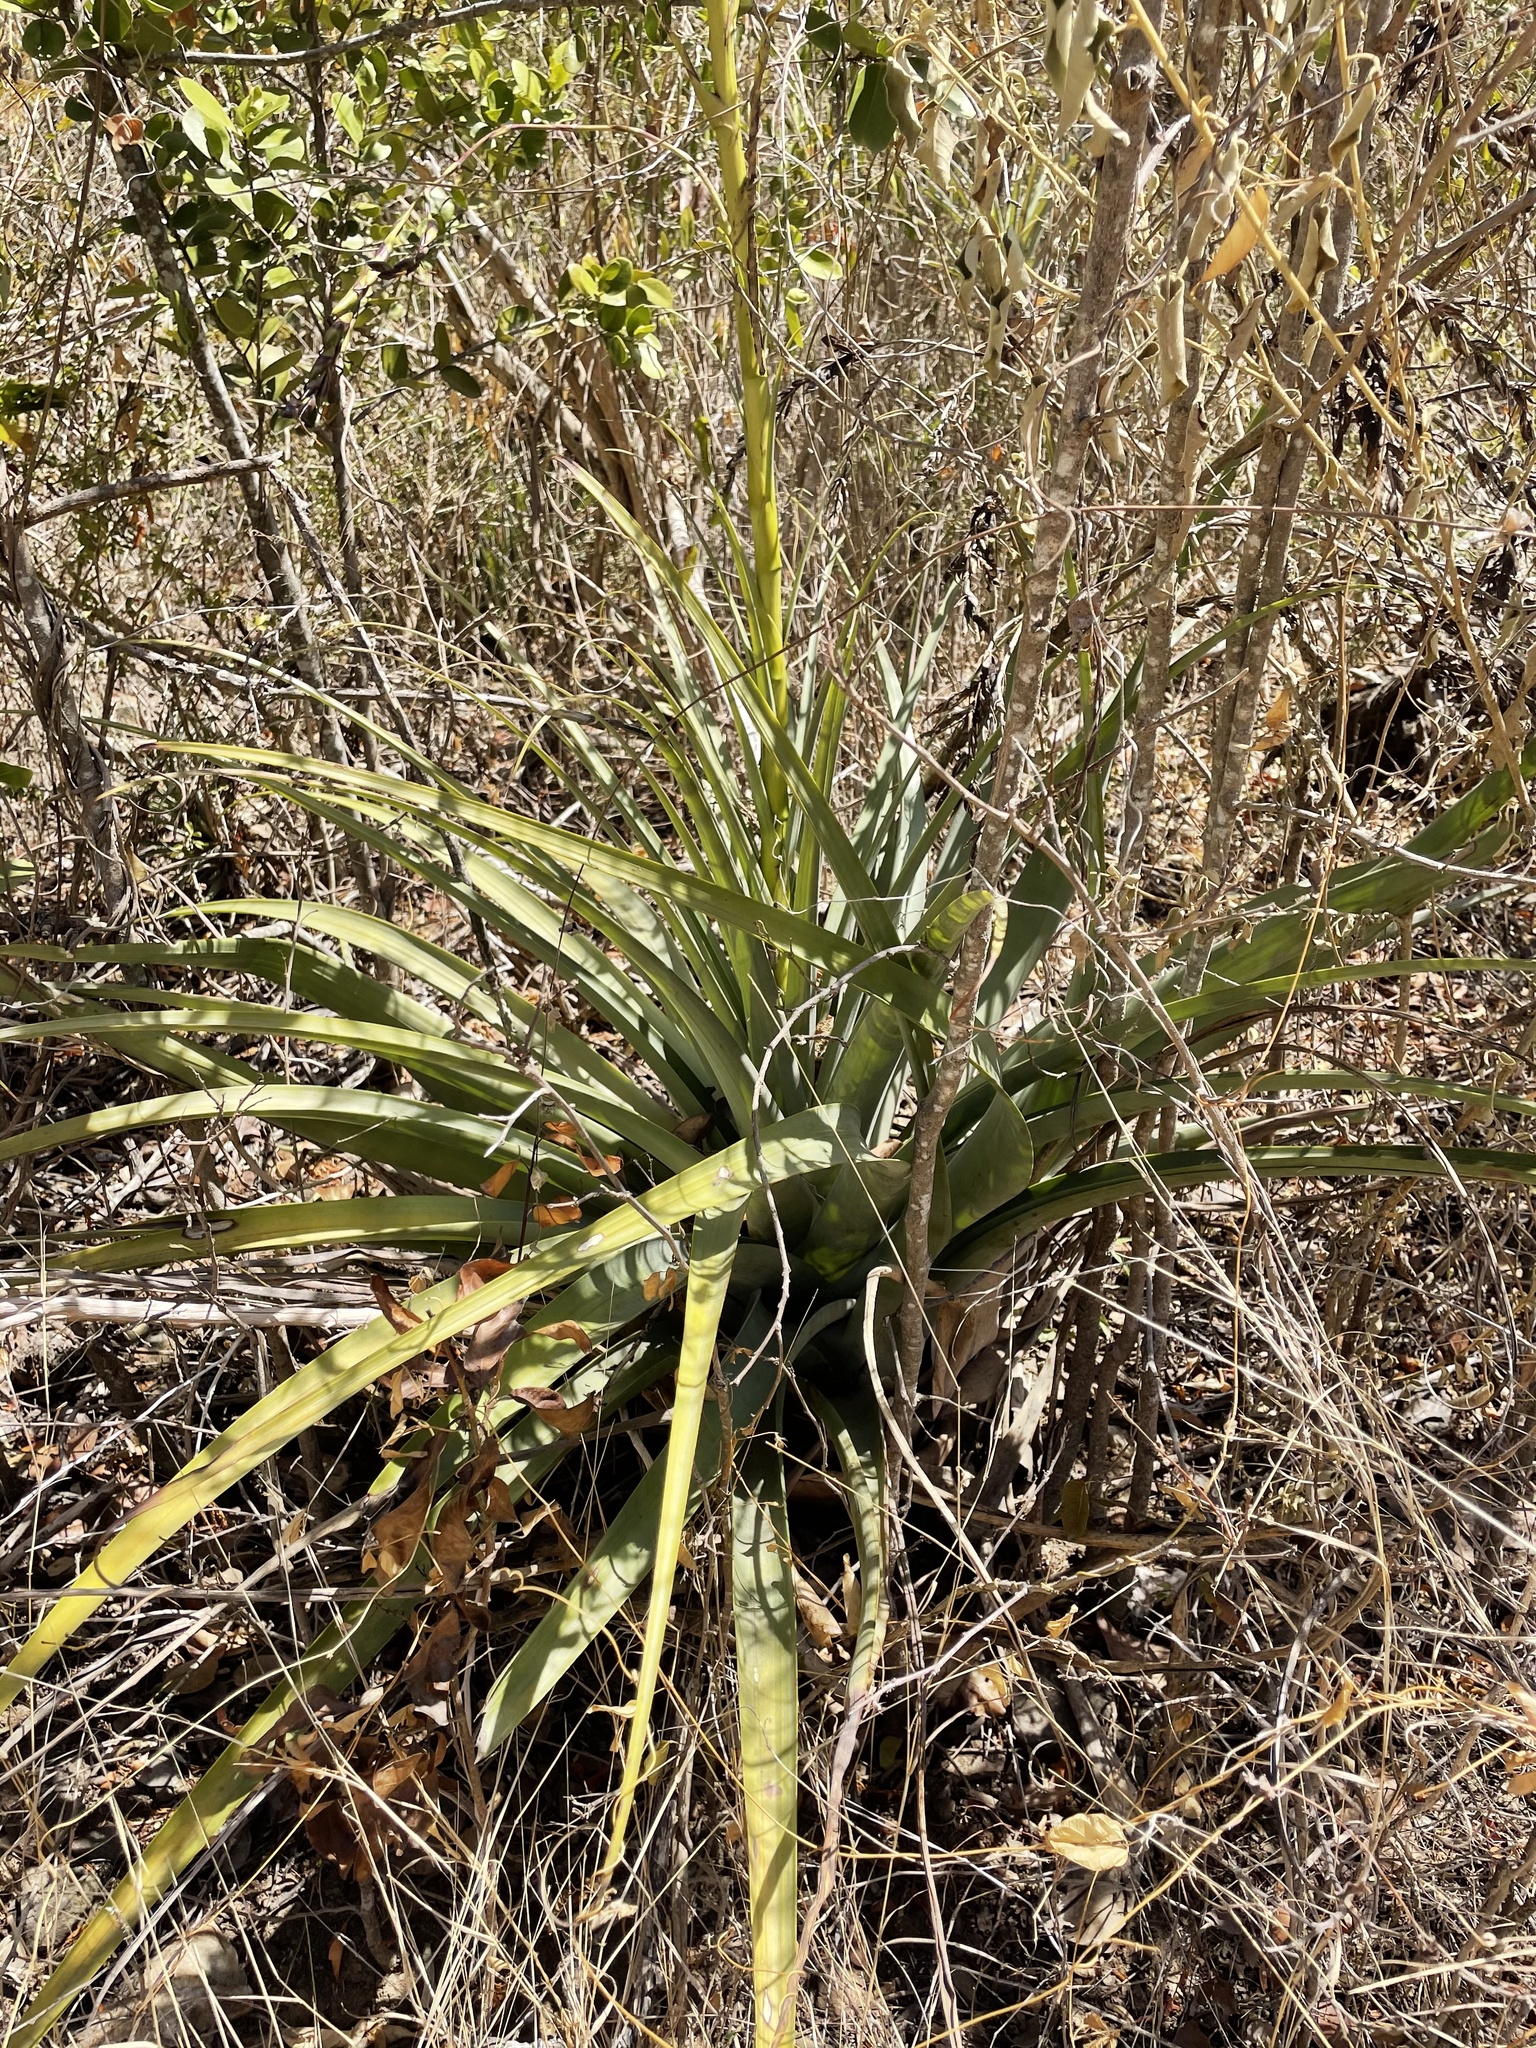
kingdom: Plantae
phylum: Tracheophyta
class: Liliopsida
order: Poales
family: Bromeliaceae
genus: Tillandsia
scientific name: Tillandsia utriculata
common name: Wild pine
